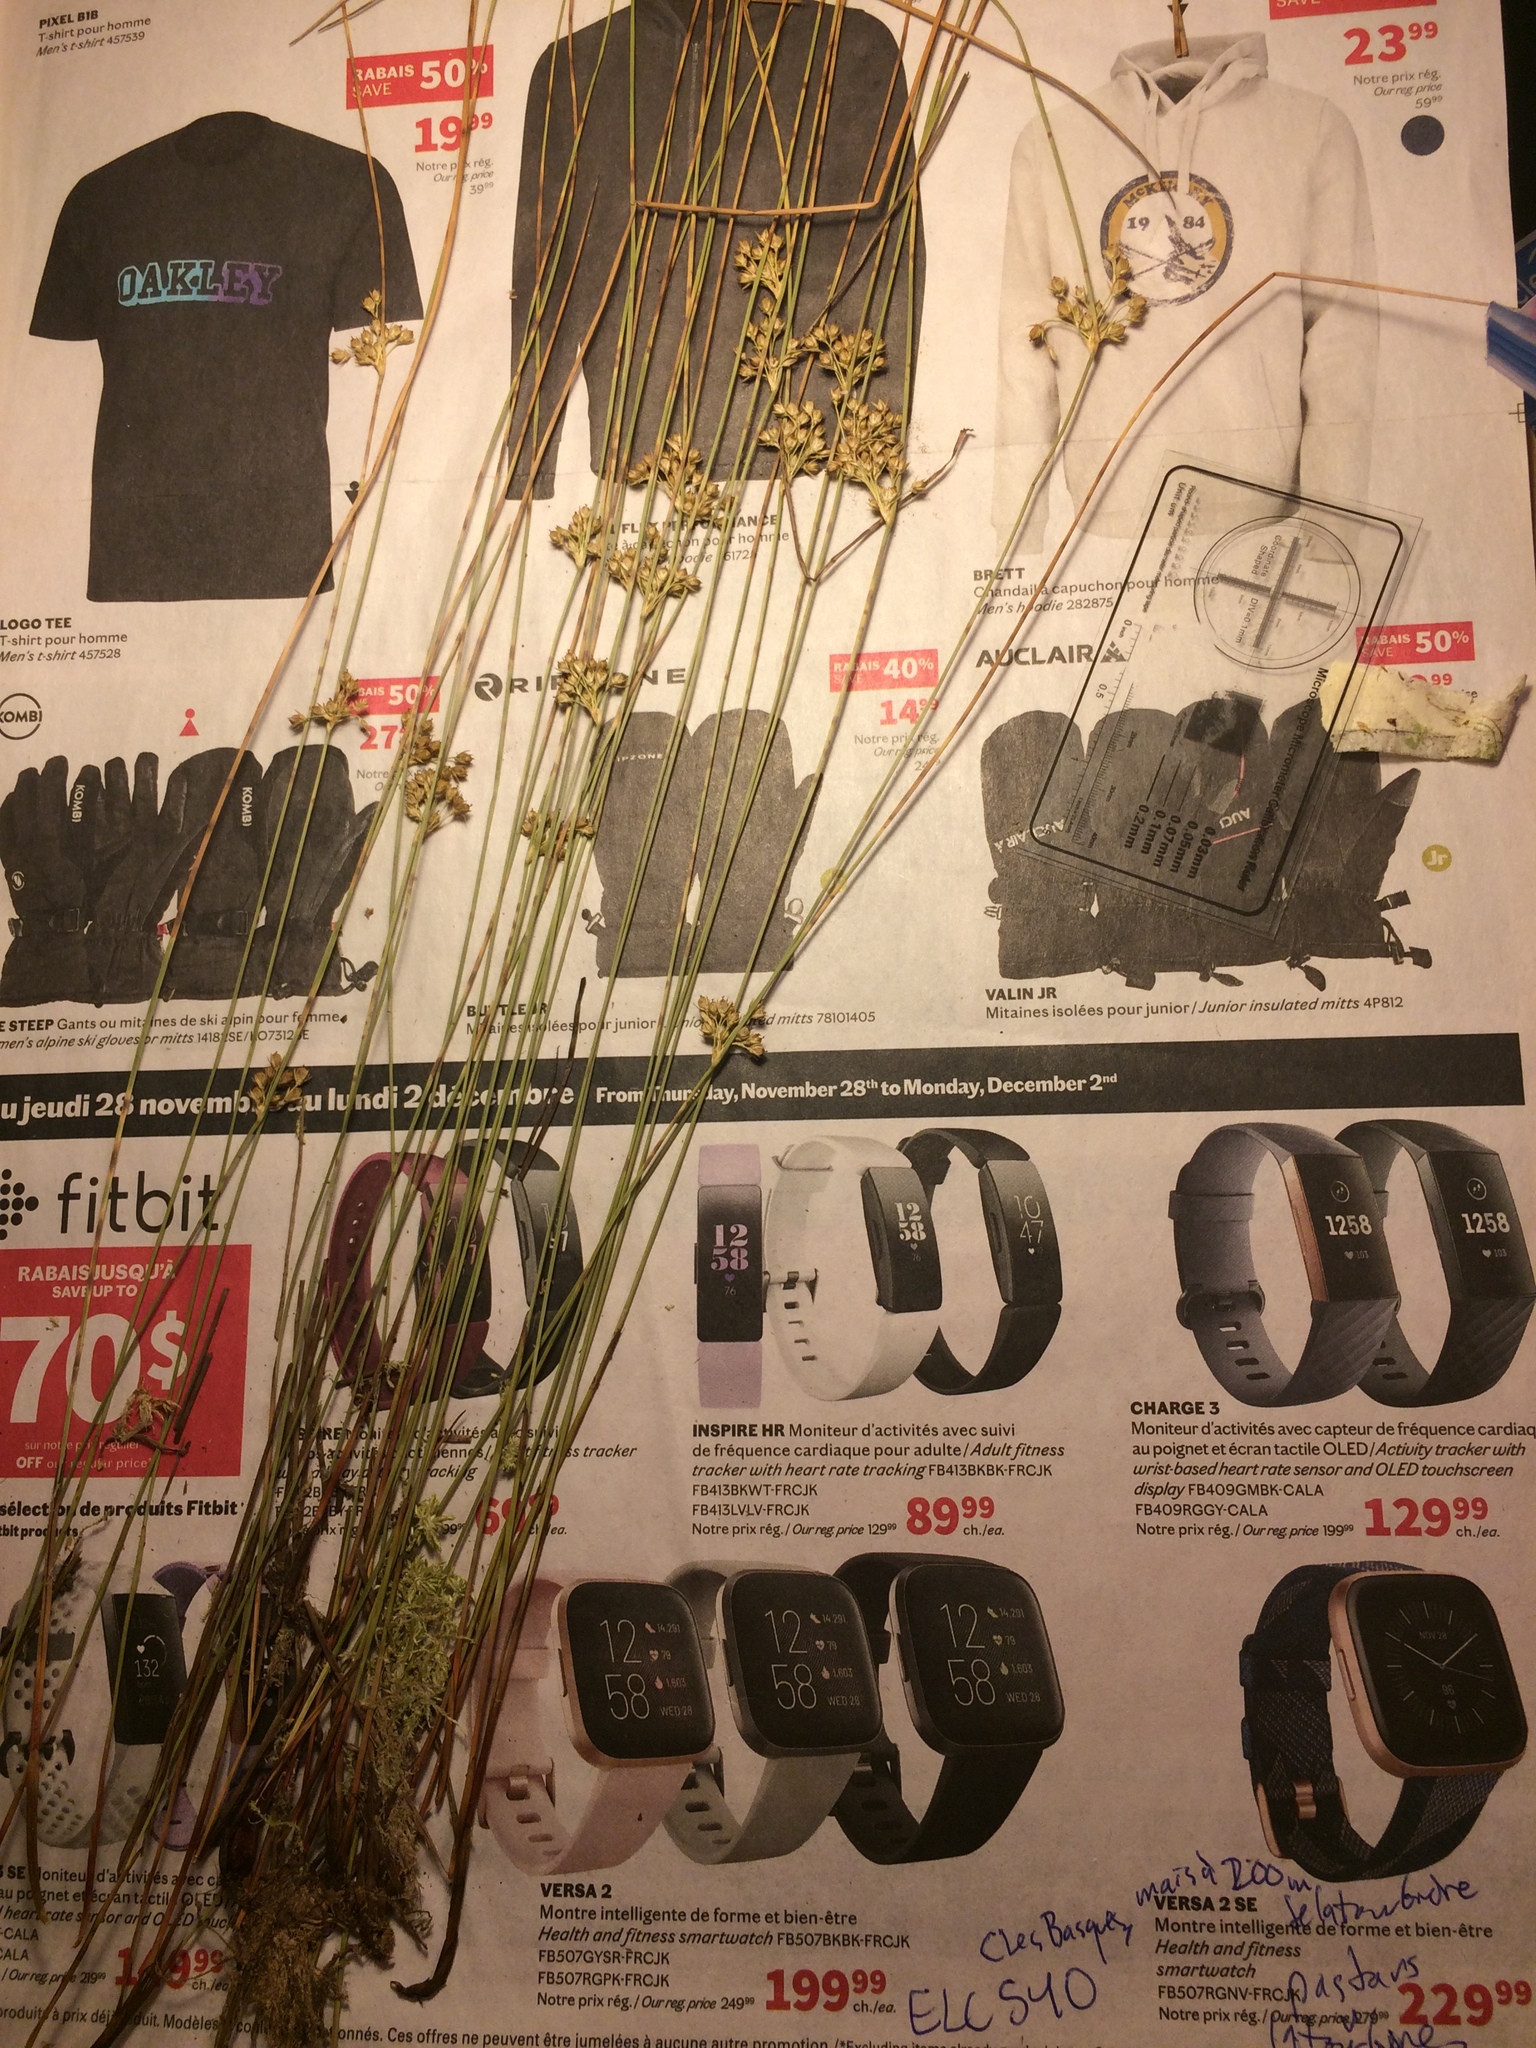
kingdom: Plantae
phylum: Tracheophyta
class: Liliopsida
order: Poales
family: Juncaceae
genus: Juncus
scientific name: Juncus filiformis
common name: Thread rush
